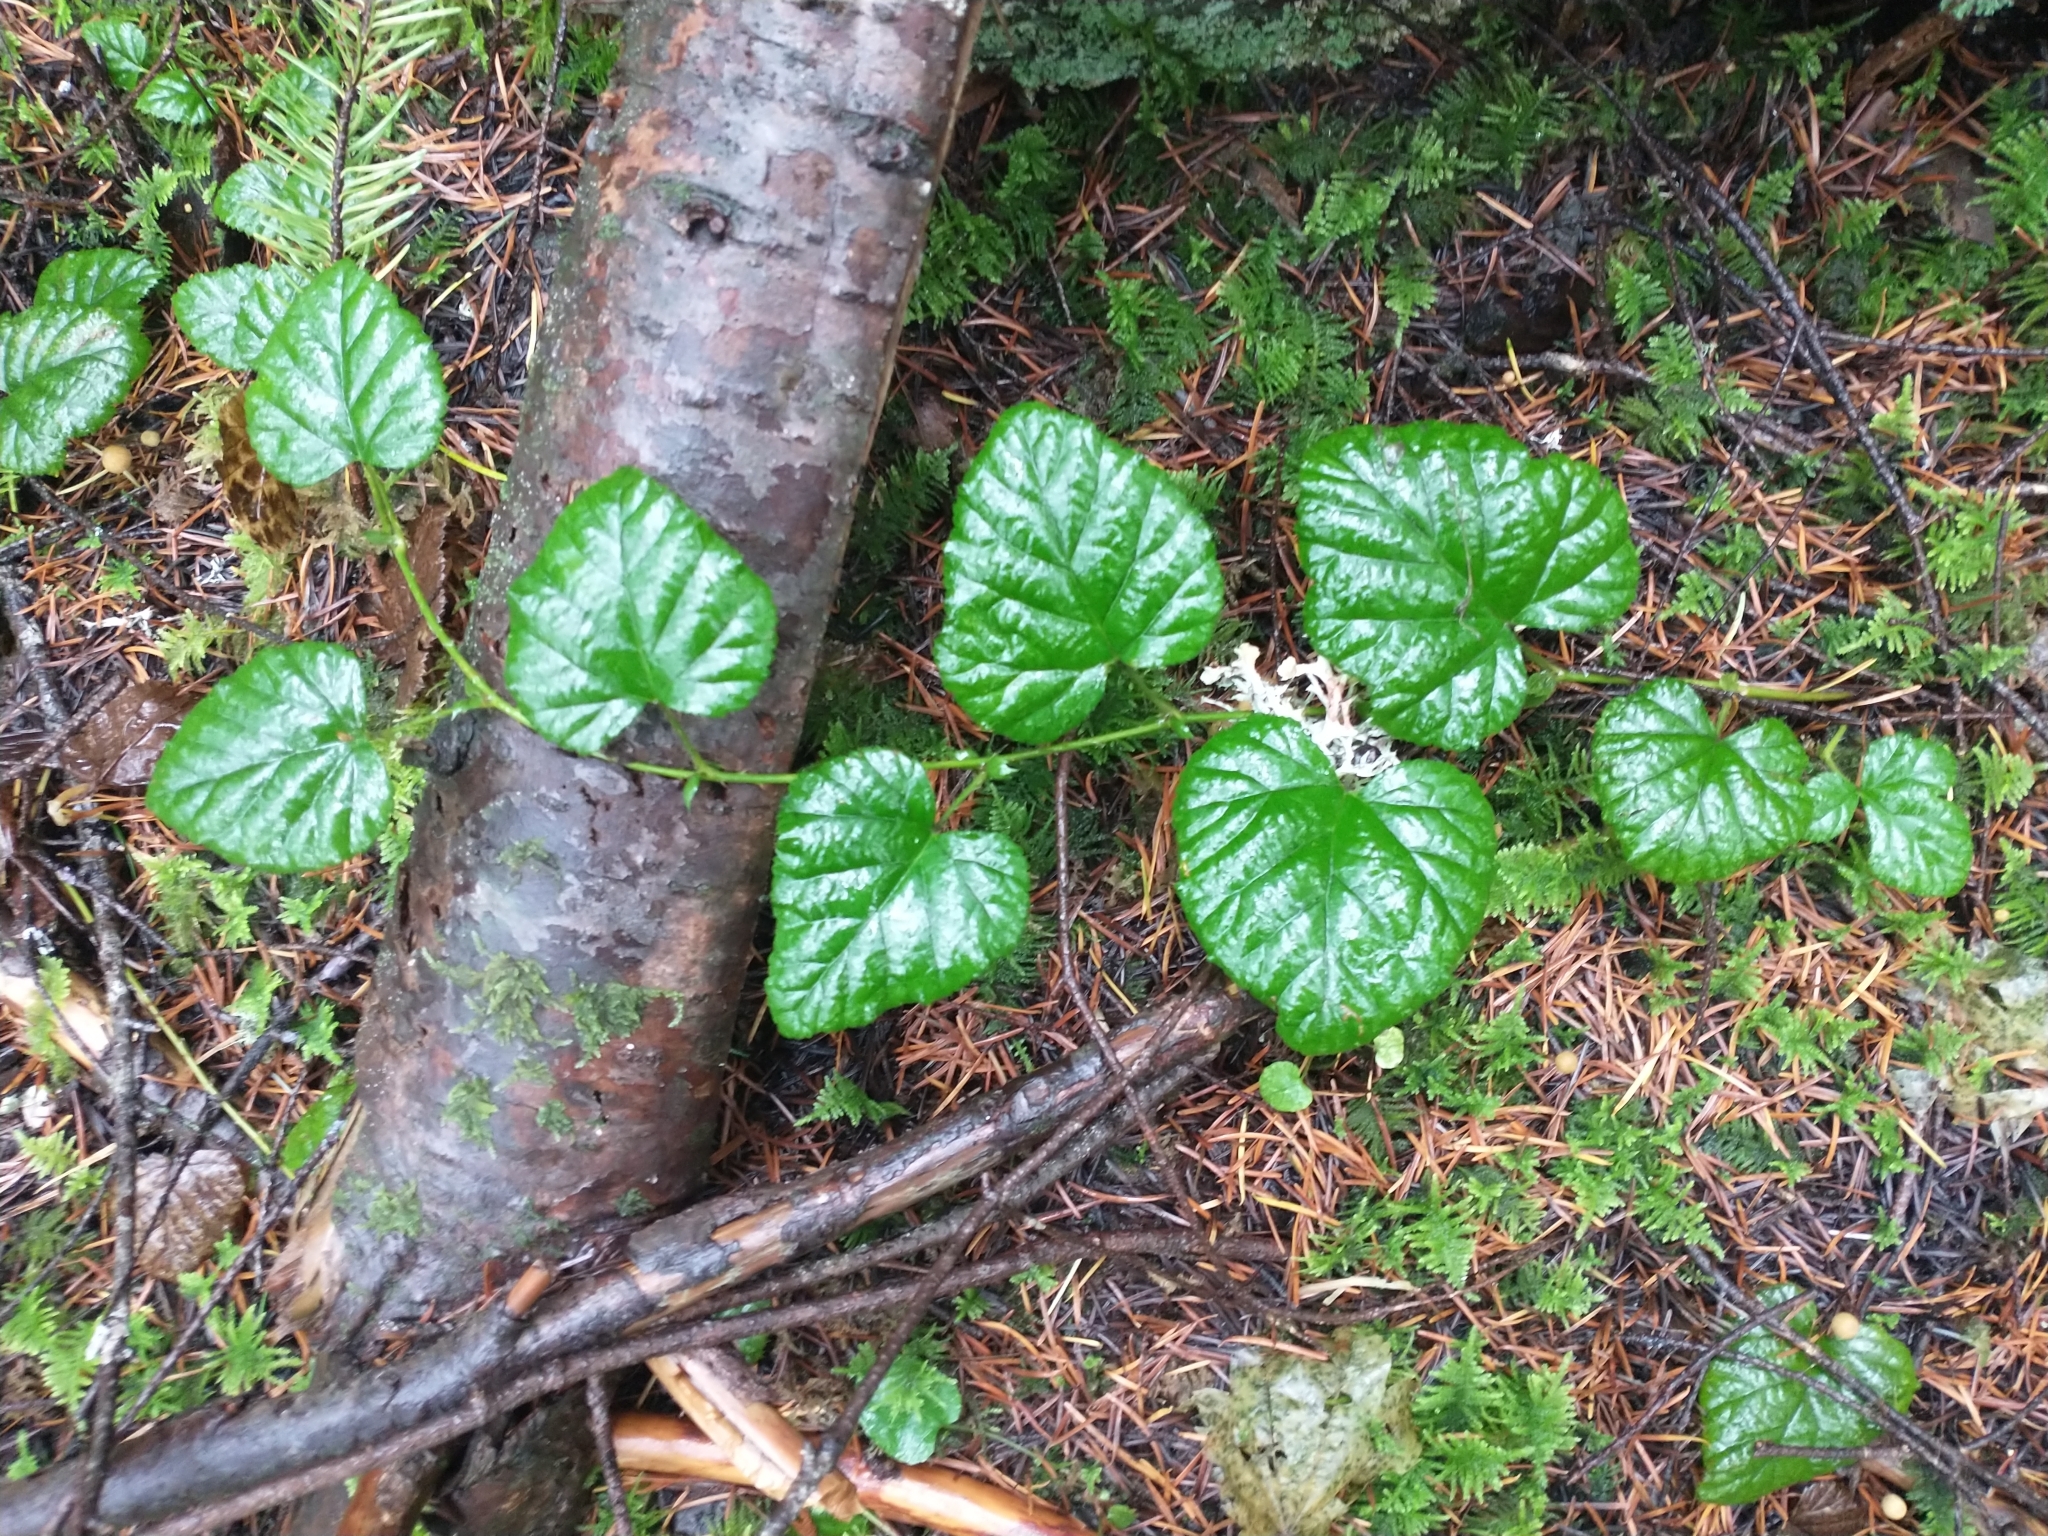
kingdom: Plantae
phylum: Tracheophyta
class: Magnoliopsida
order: Rosales
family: Rosaceae
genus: Rubus
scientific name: Rubus nivalis
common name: Dwarf snow bramble
